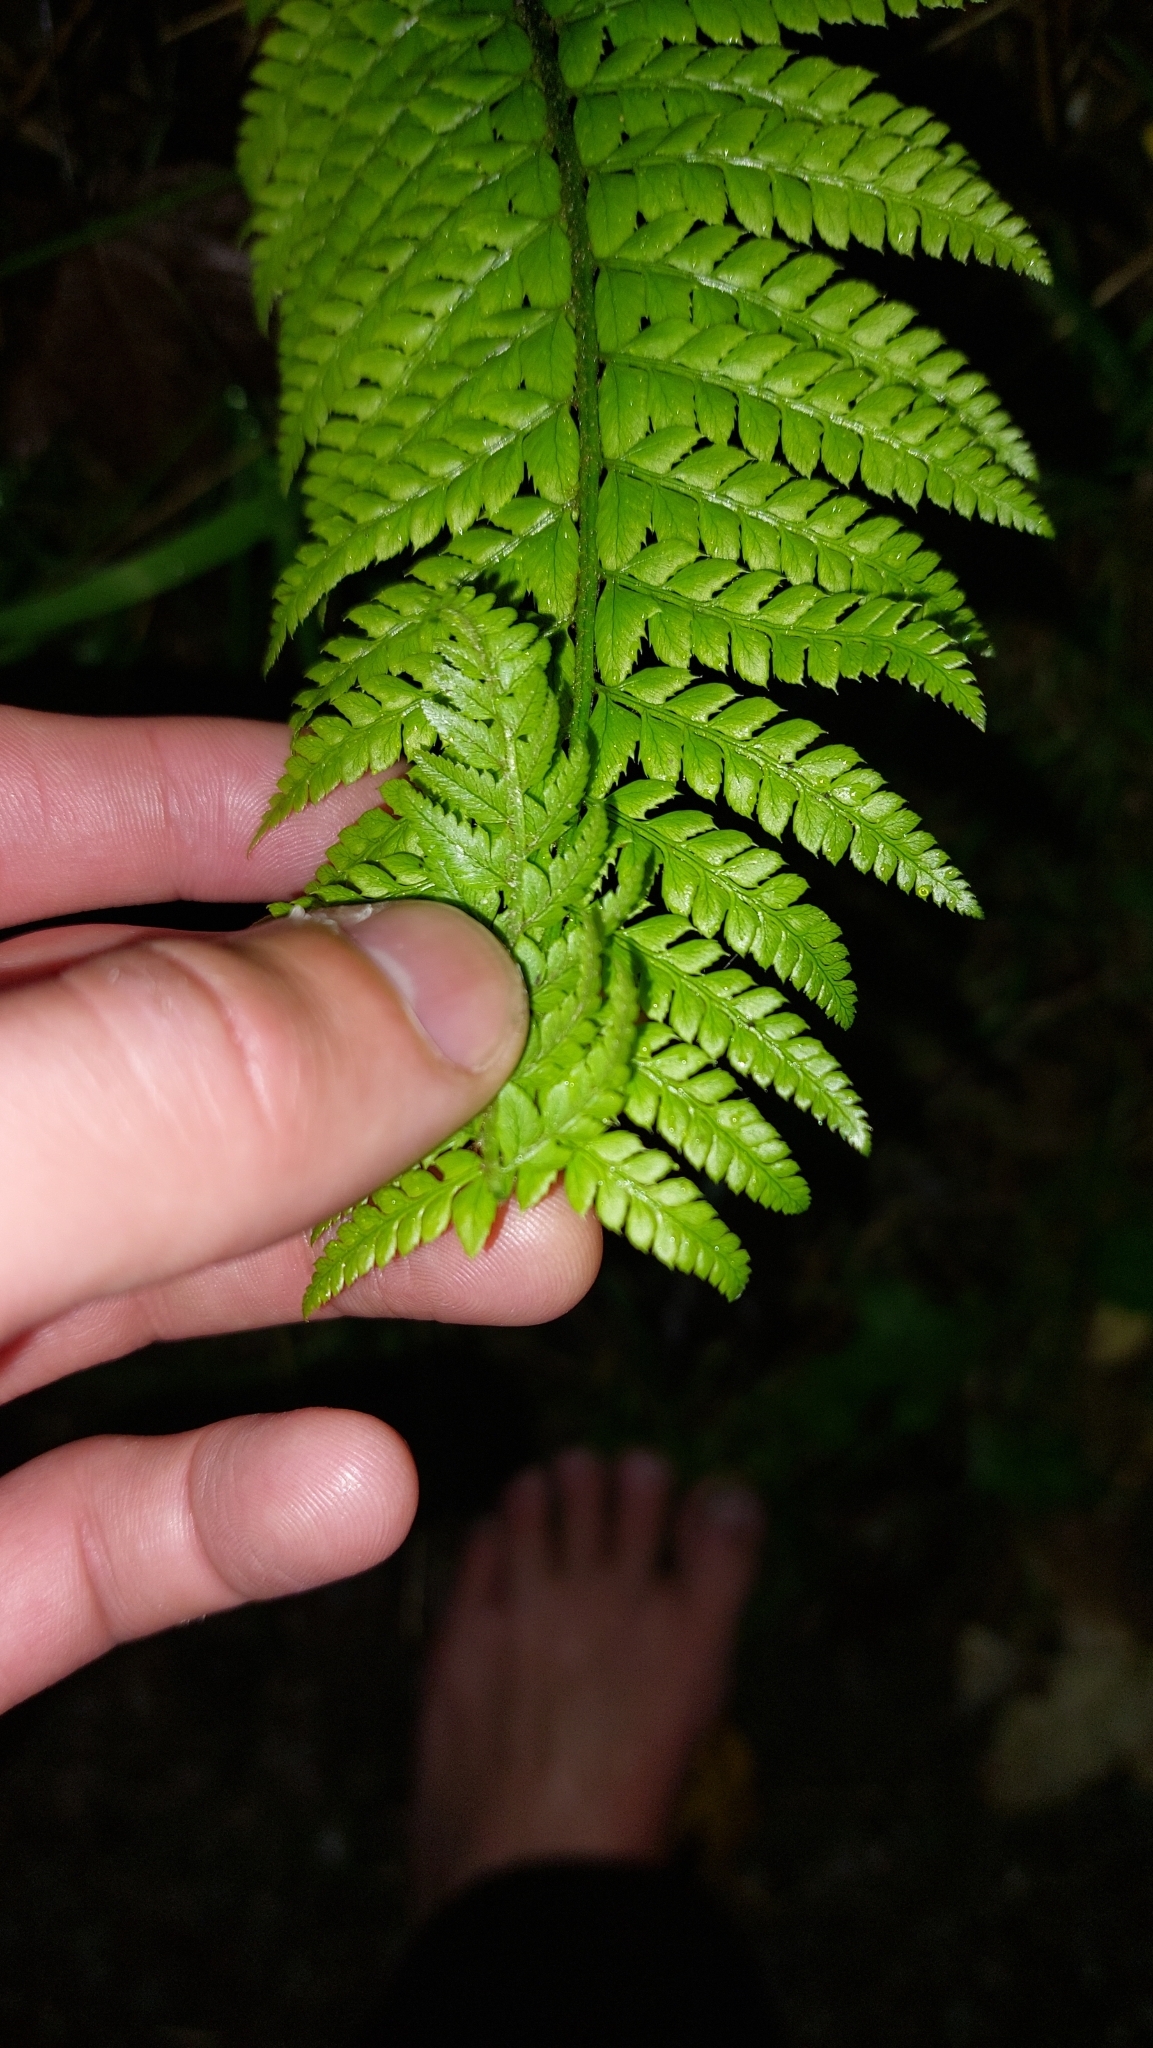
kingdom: Plantae
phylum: Tracheophyta
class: Polypodiopsida
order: Polypodiales
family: Dryopteridaceae
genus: Polystichum
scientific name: Polystichum aculeatum
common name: Hard shield-fern
